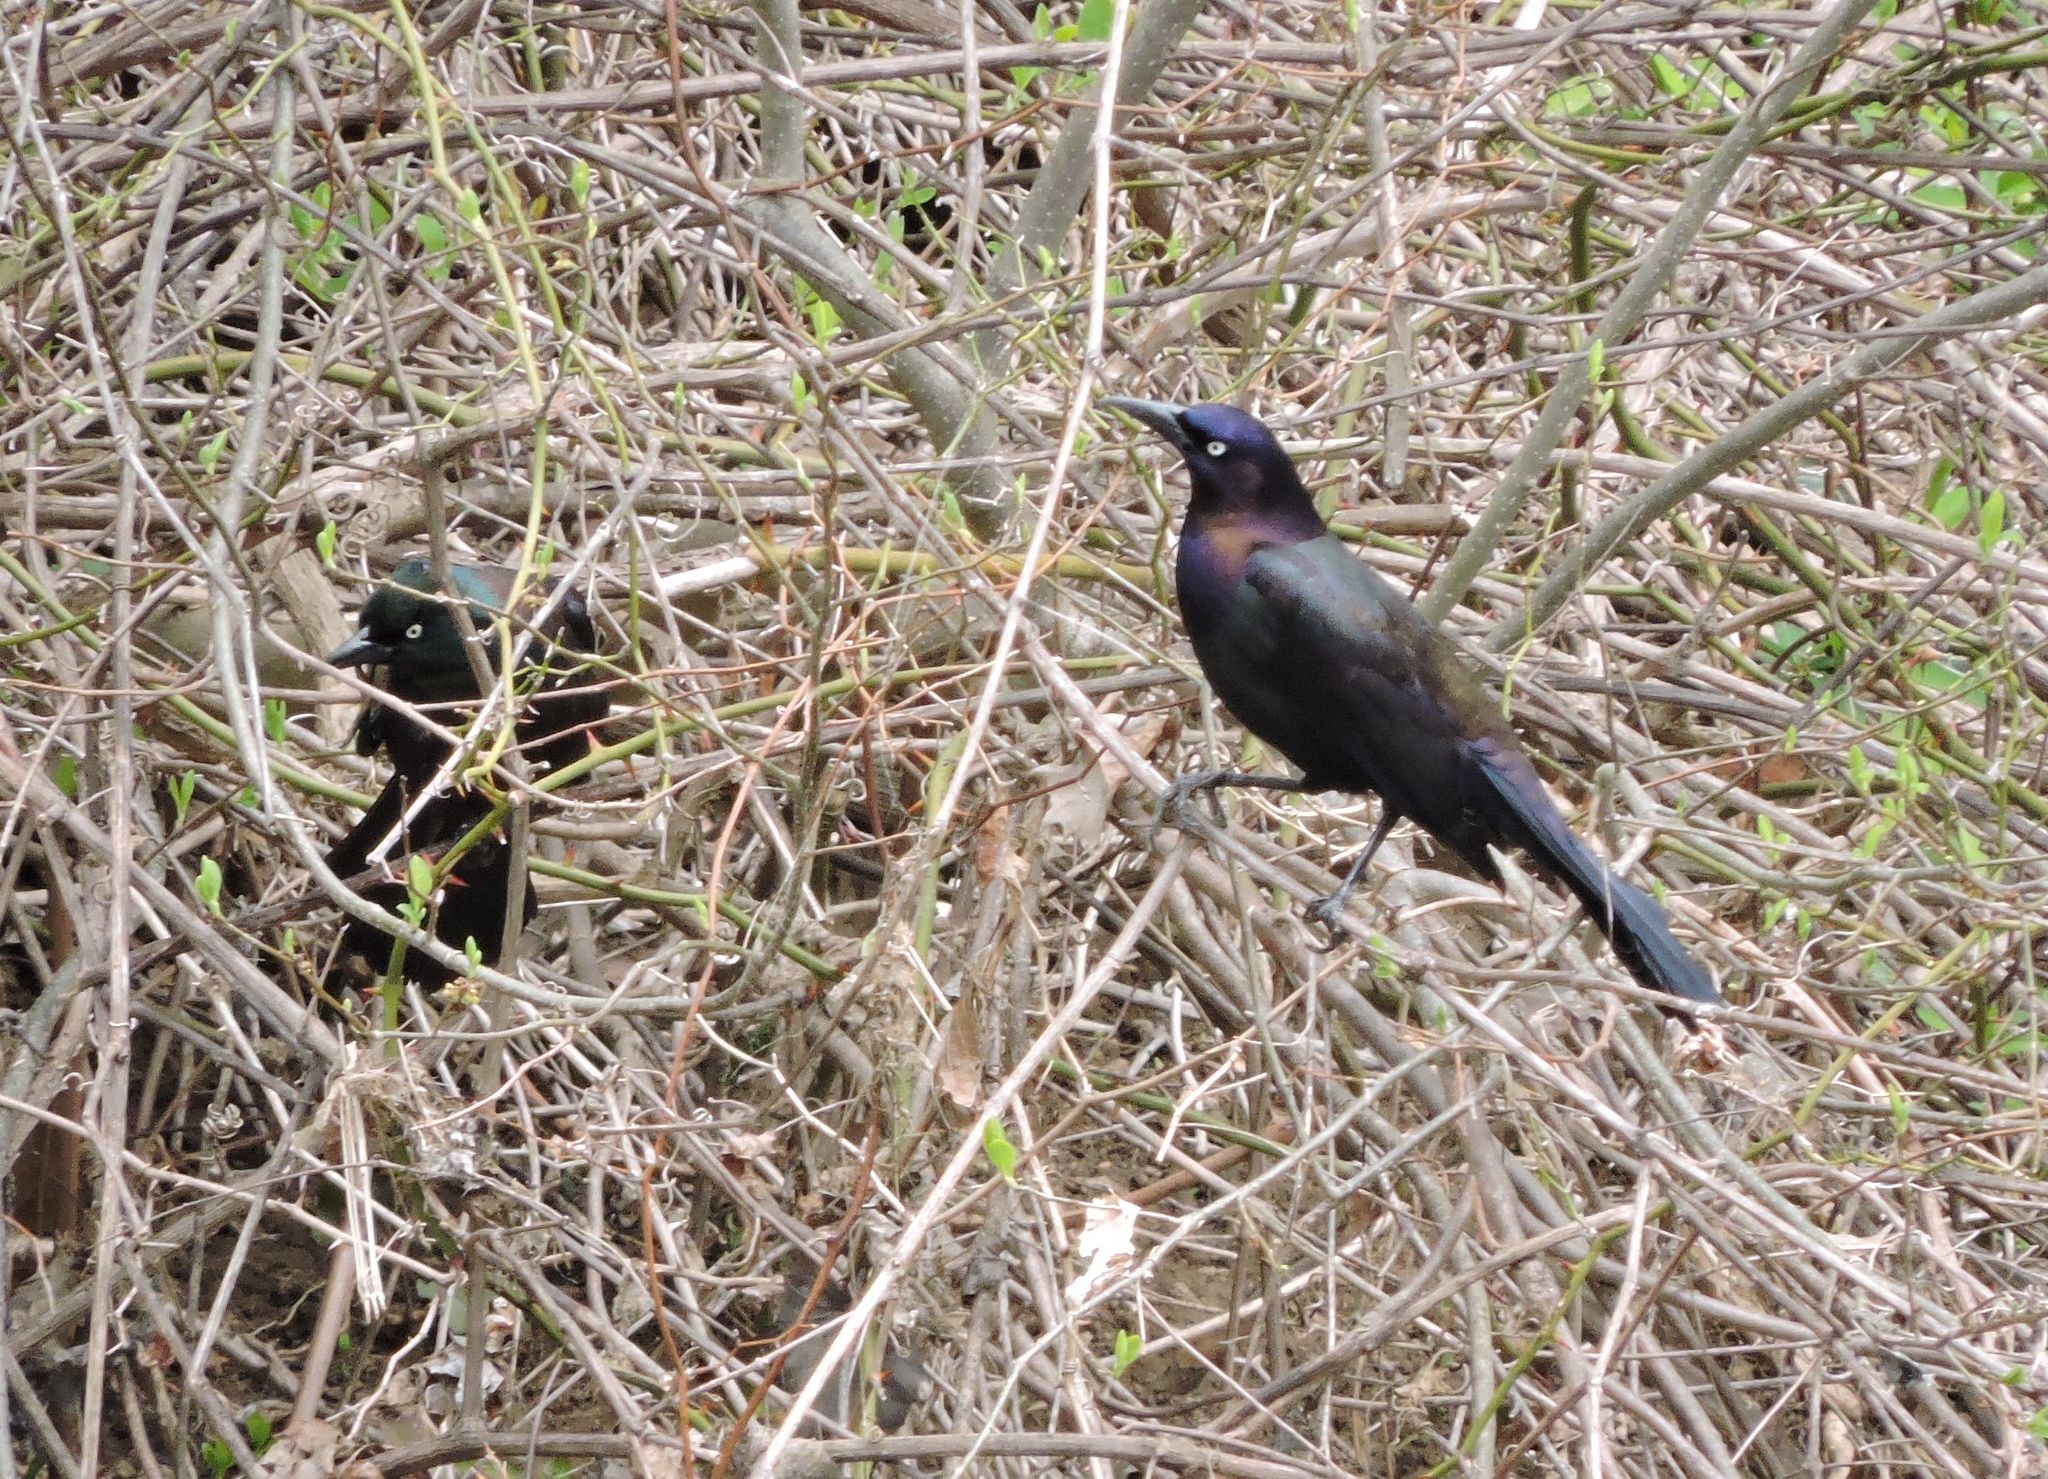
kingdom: Animalia
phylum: Chordata
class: Aves
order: Passeriformes
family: Icteridae
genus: Quiscalus
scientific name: Quiscalus quiscula
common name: Common grackle
